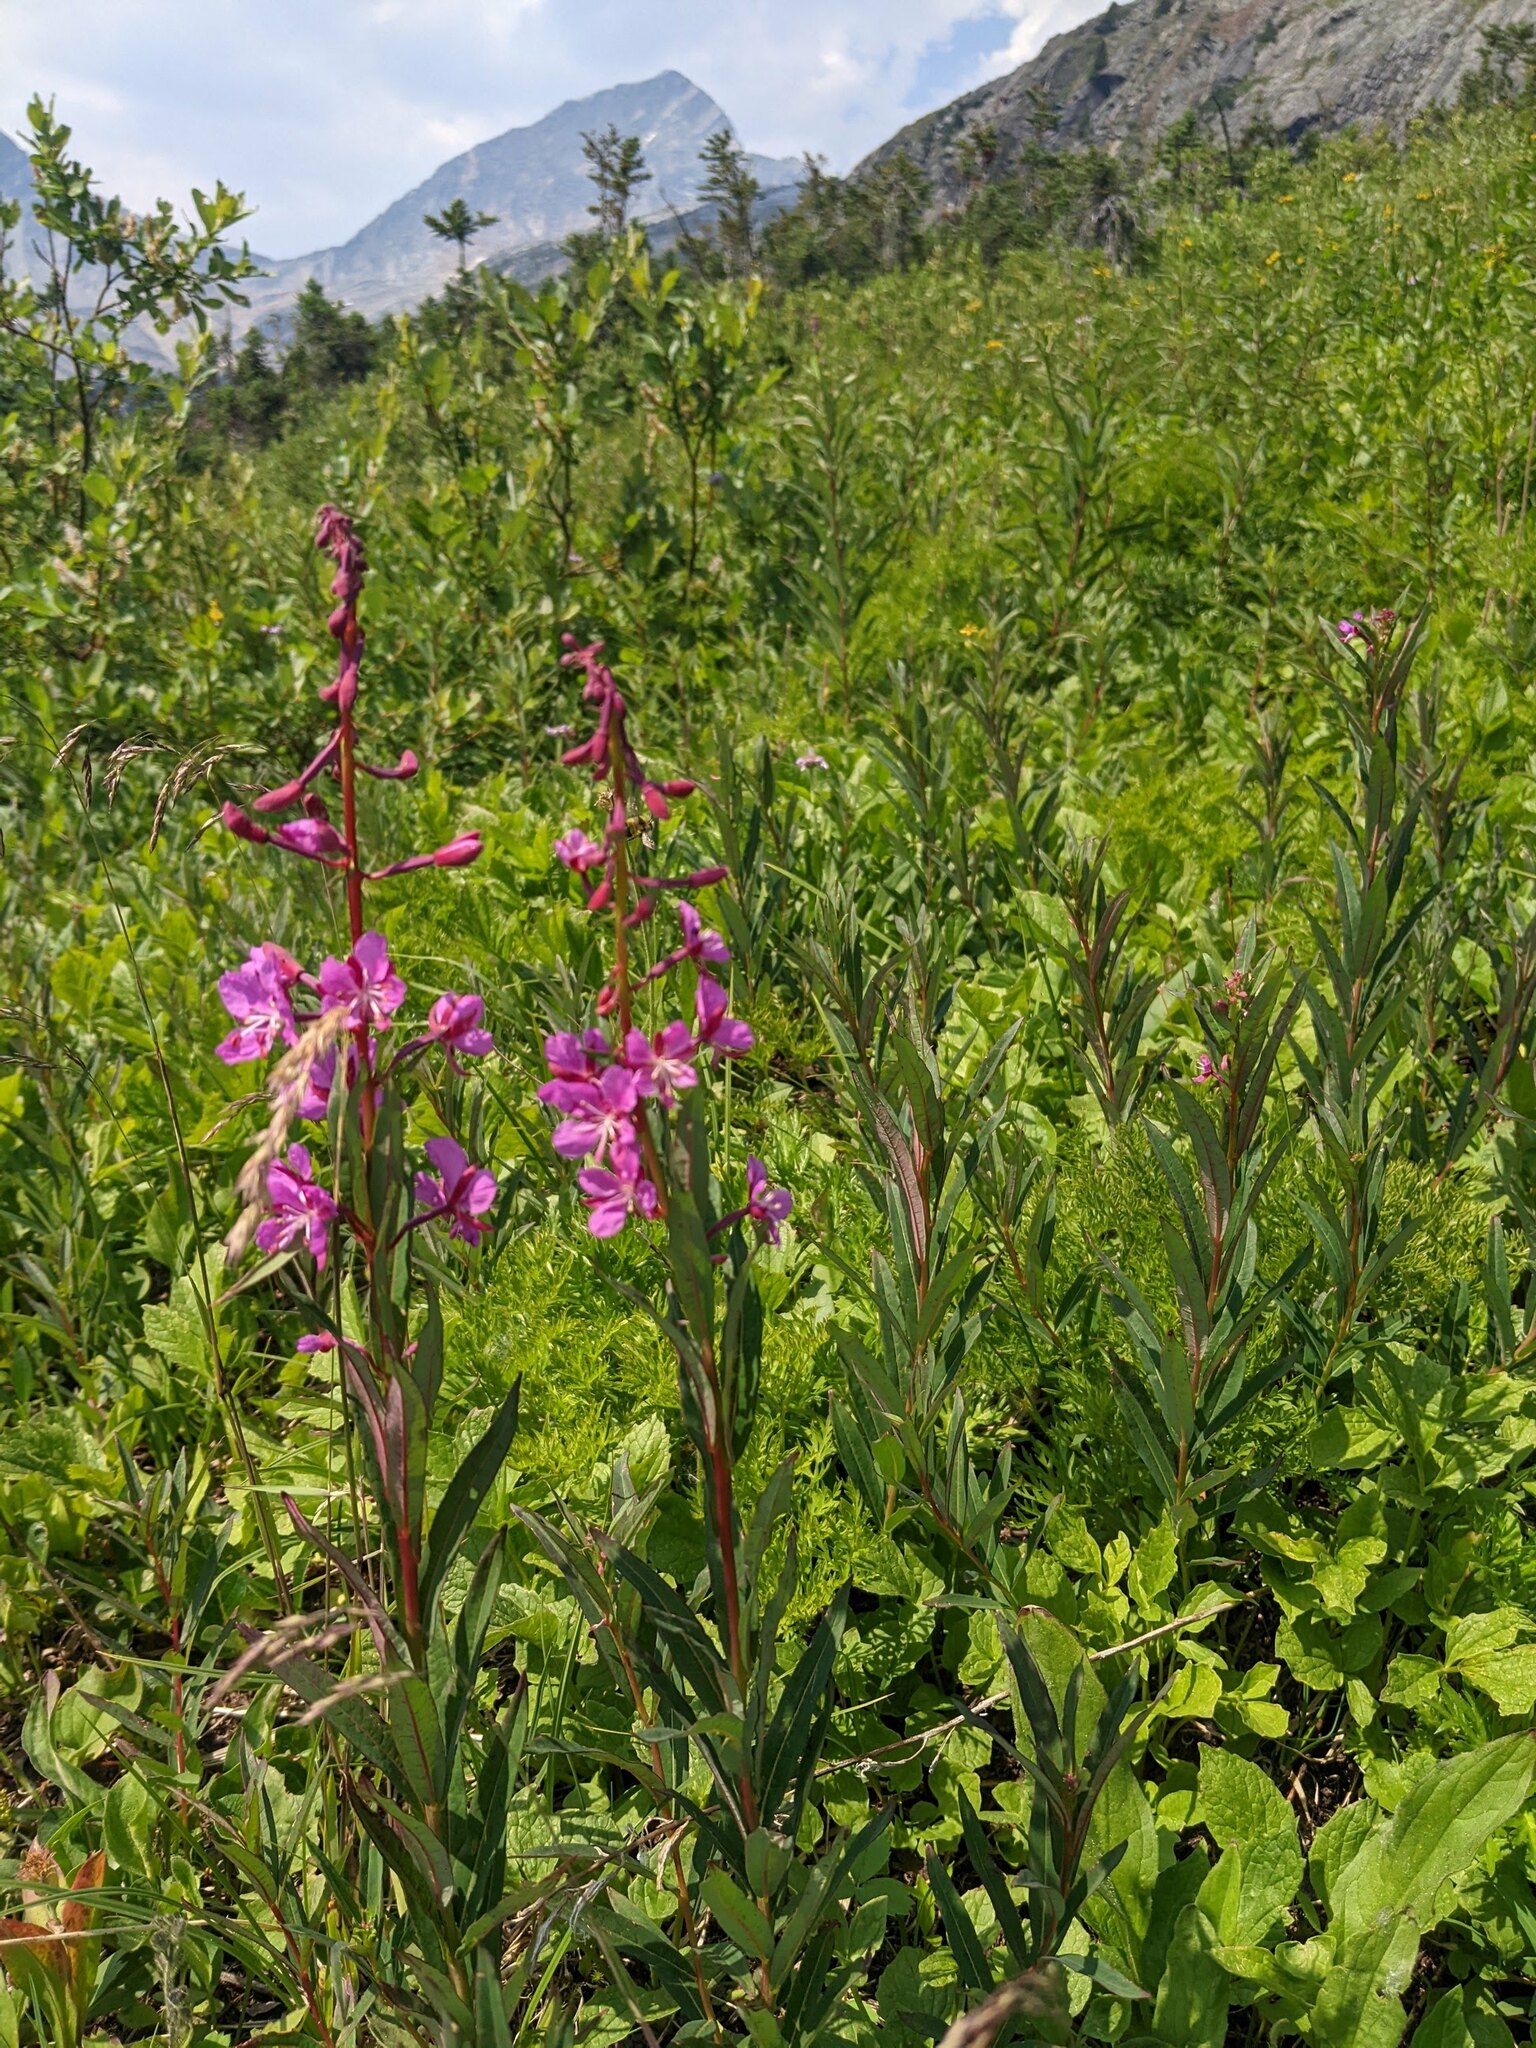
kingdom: Plantae
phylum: Tracheophyta
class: Magnoliopsida
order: Myrtales
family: Onagraceae
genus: Chamaenerion
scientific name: Chamaenerion angustifolium
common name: Fireweed
